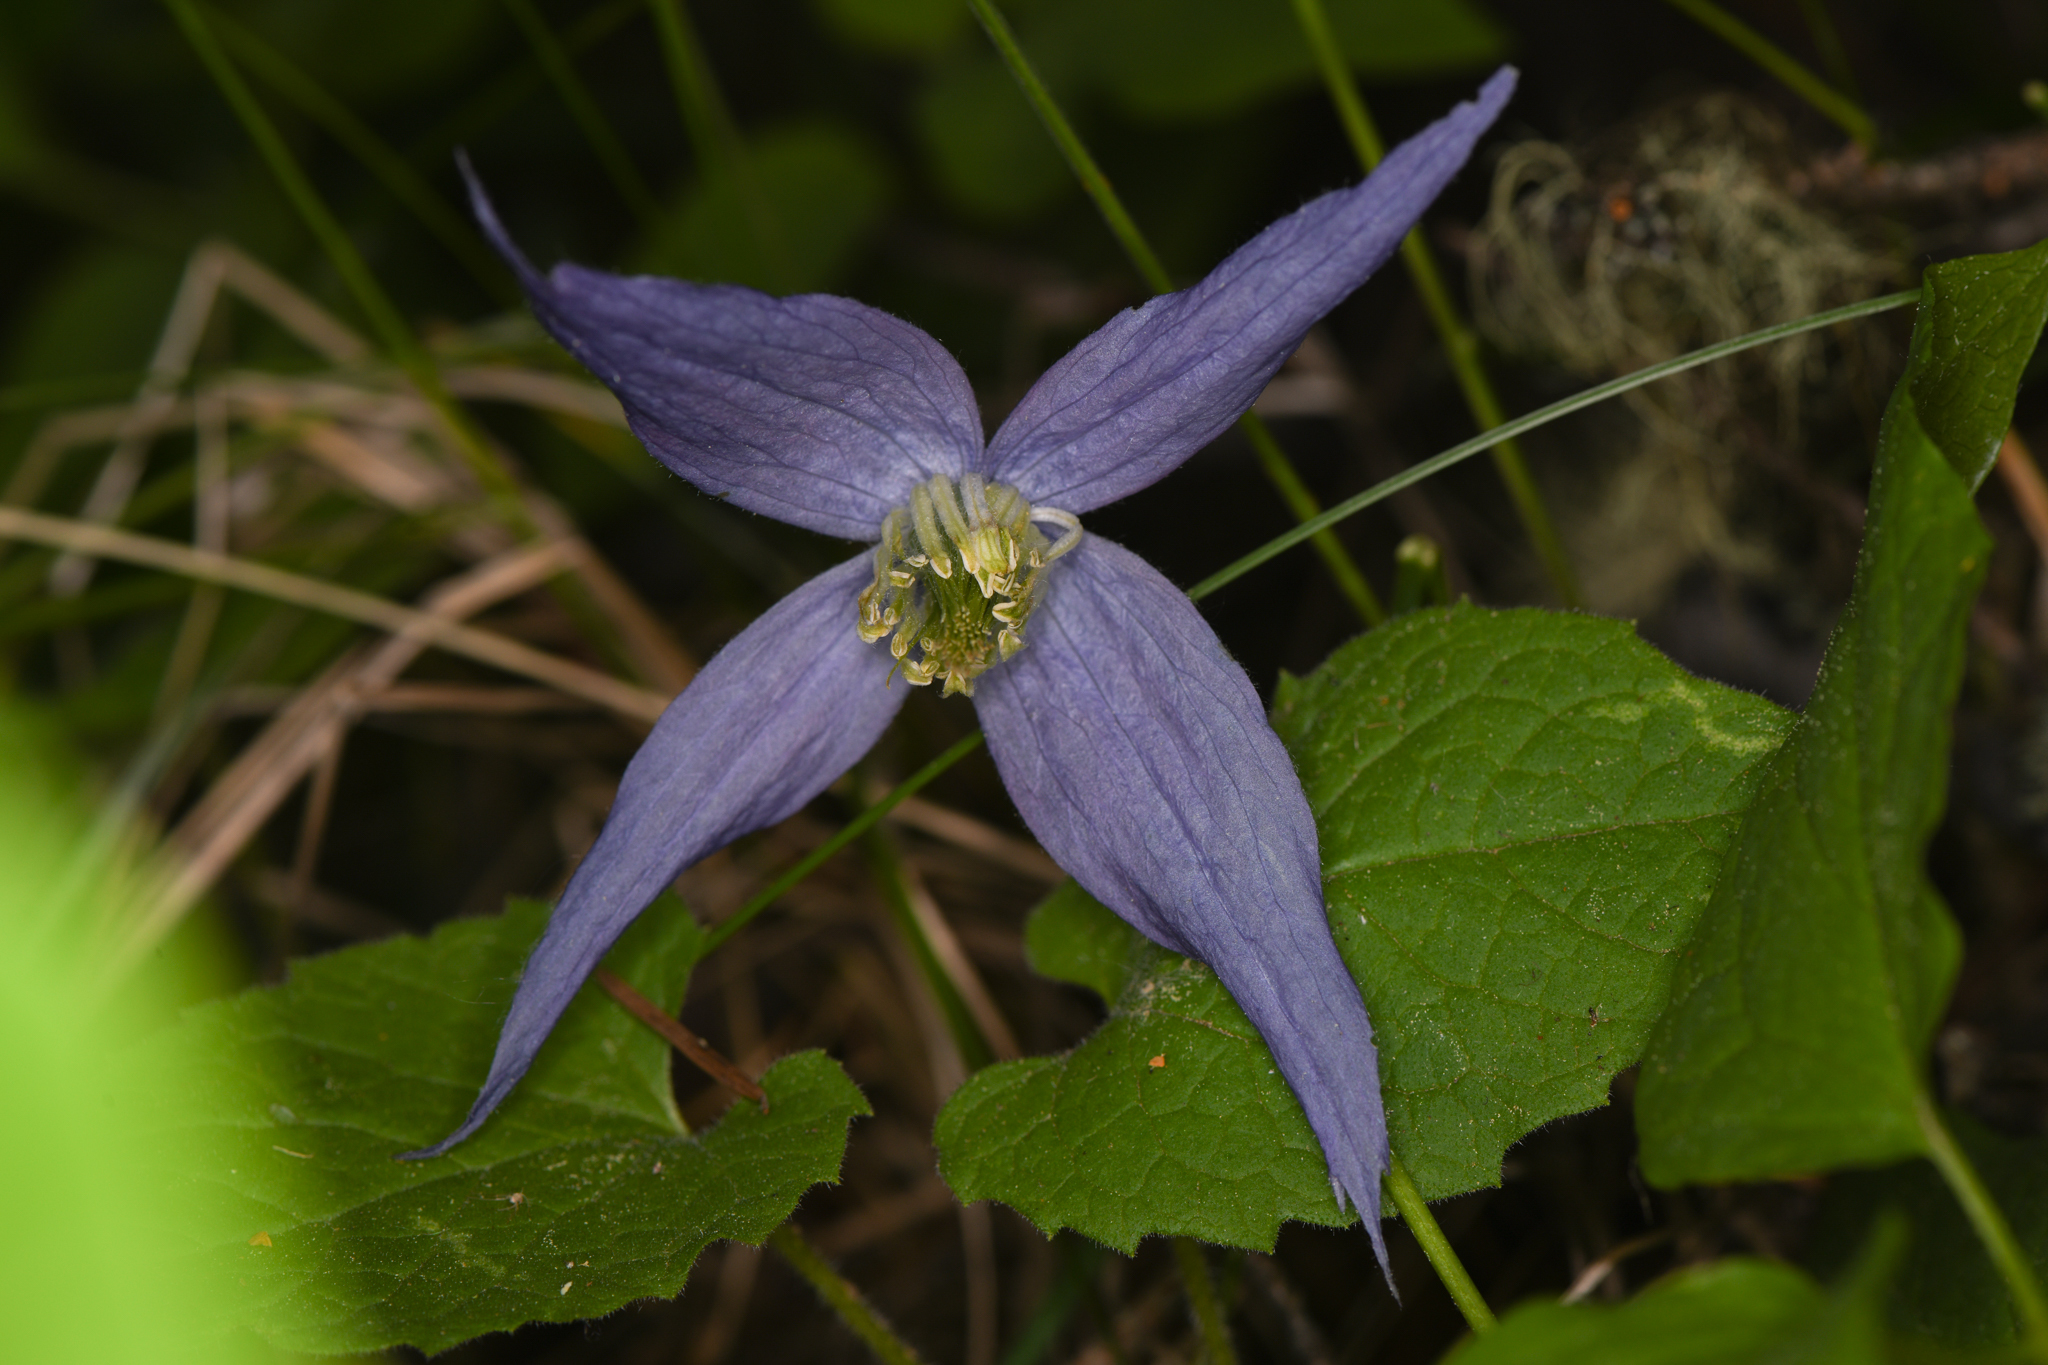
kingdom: Plantae
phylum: Tracheophyta
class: Magnoliopsida
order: Ranunculales
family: Ranunculaceae
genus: Clematis
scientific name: Clematis occidentalis
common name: Purple clematis
